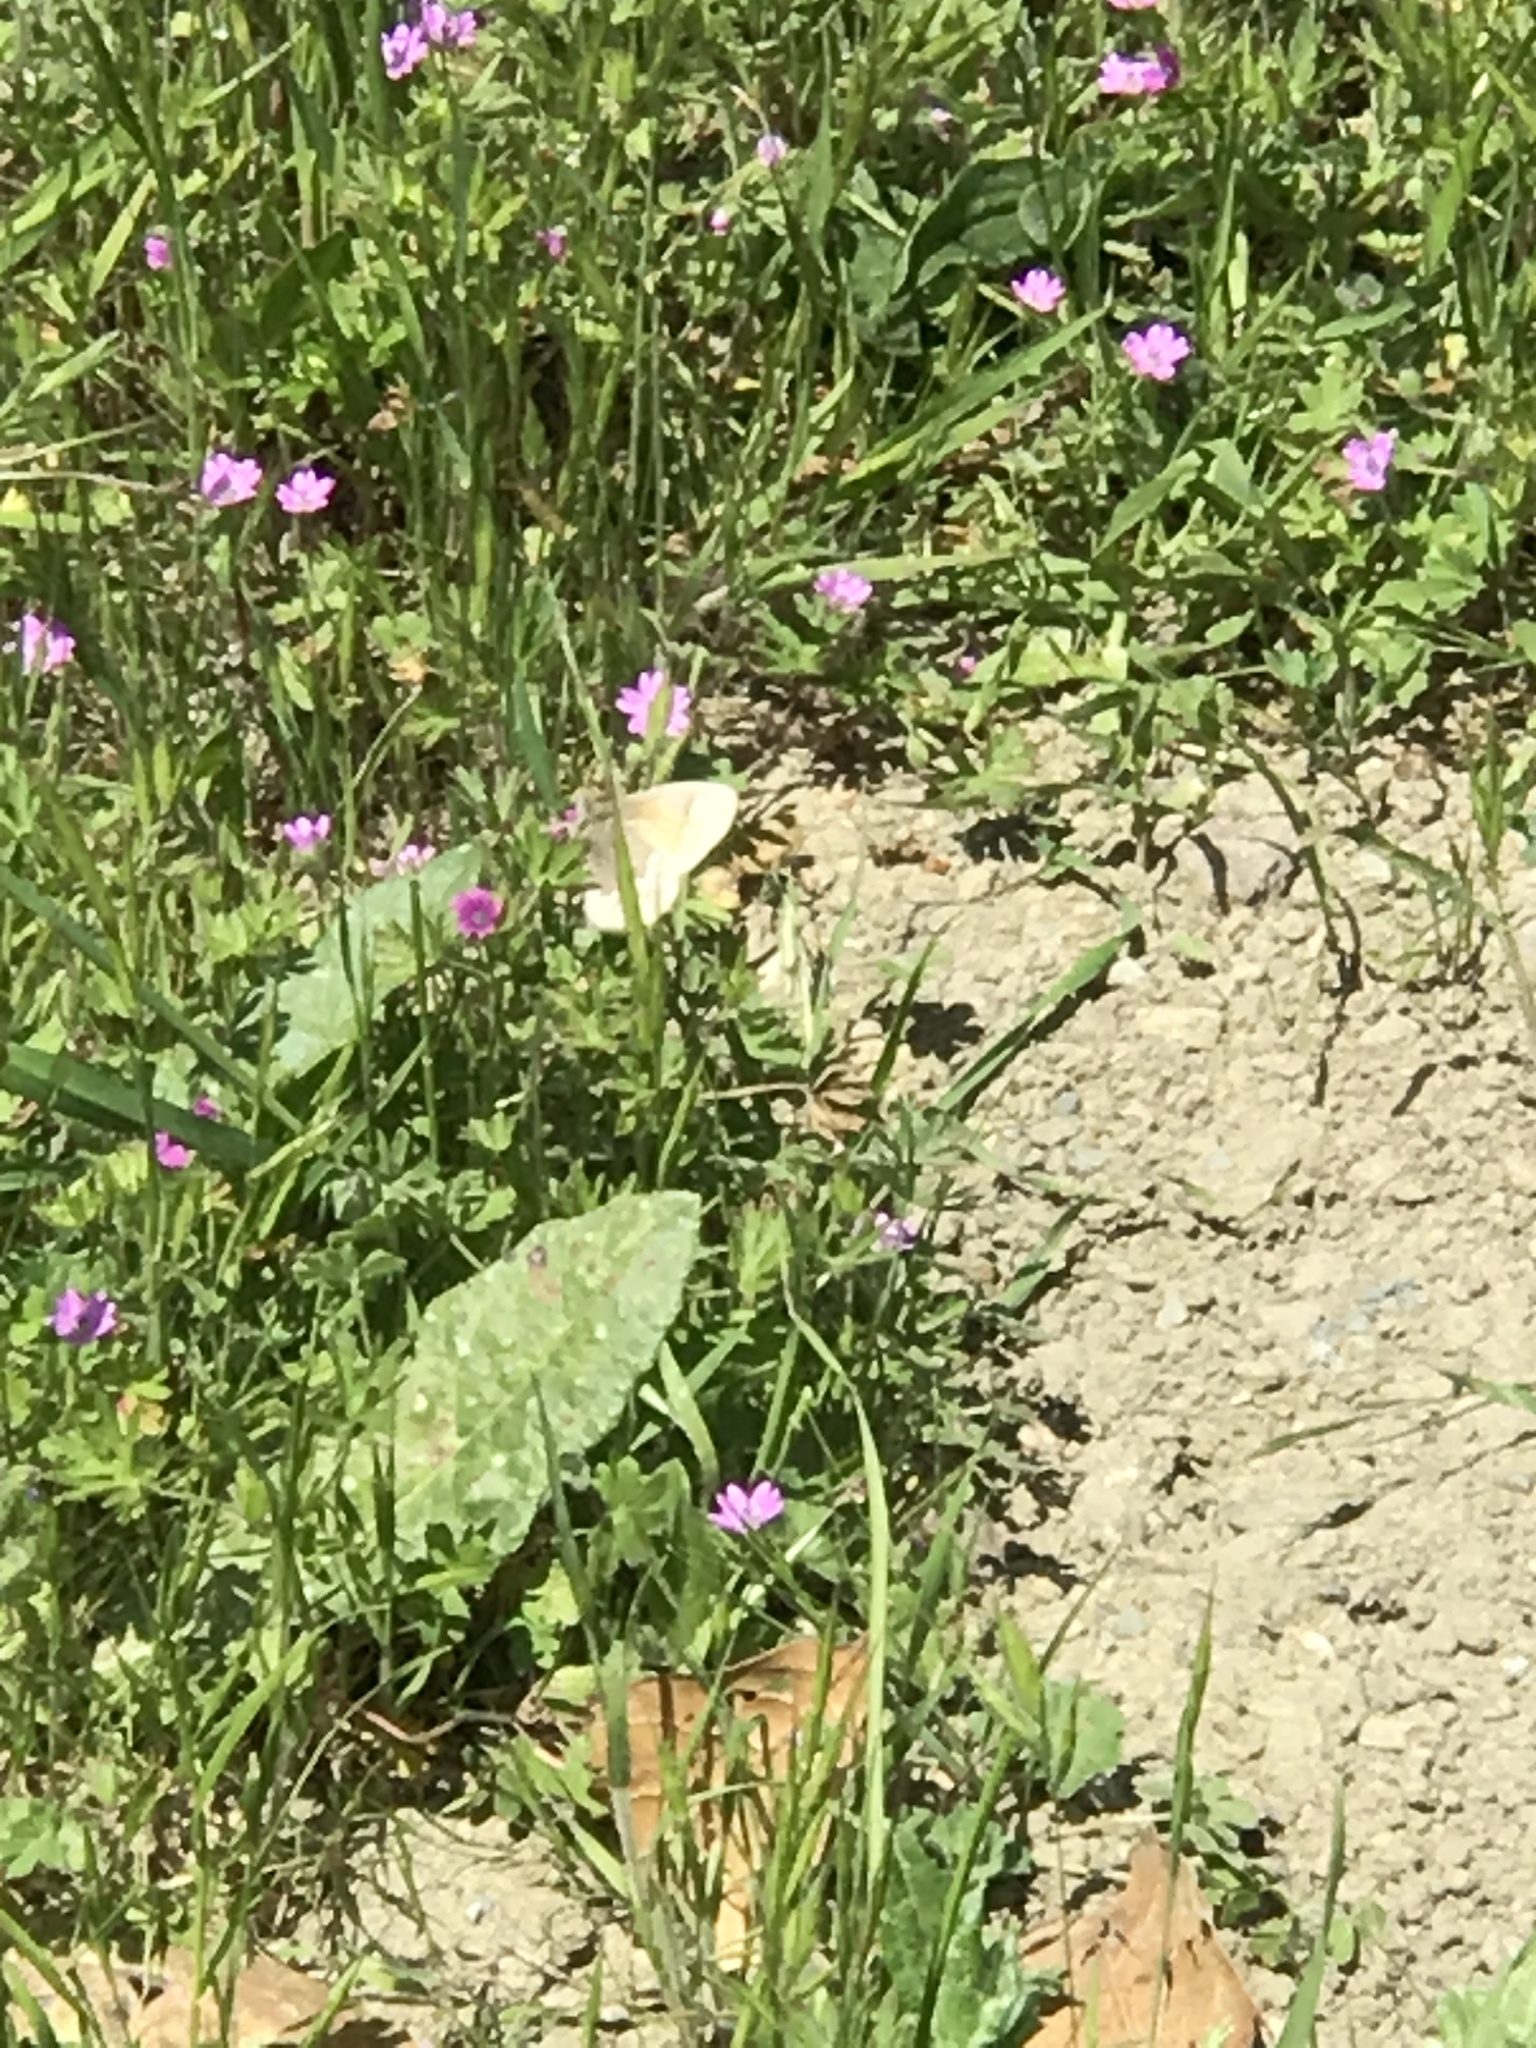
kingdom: Animalia
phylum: Arthropoda
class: Insecta
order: Lepidoptera
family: Nymphalidae
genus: Coenonympha
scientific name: Coenonympha california
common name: Common ringlet
